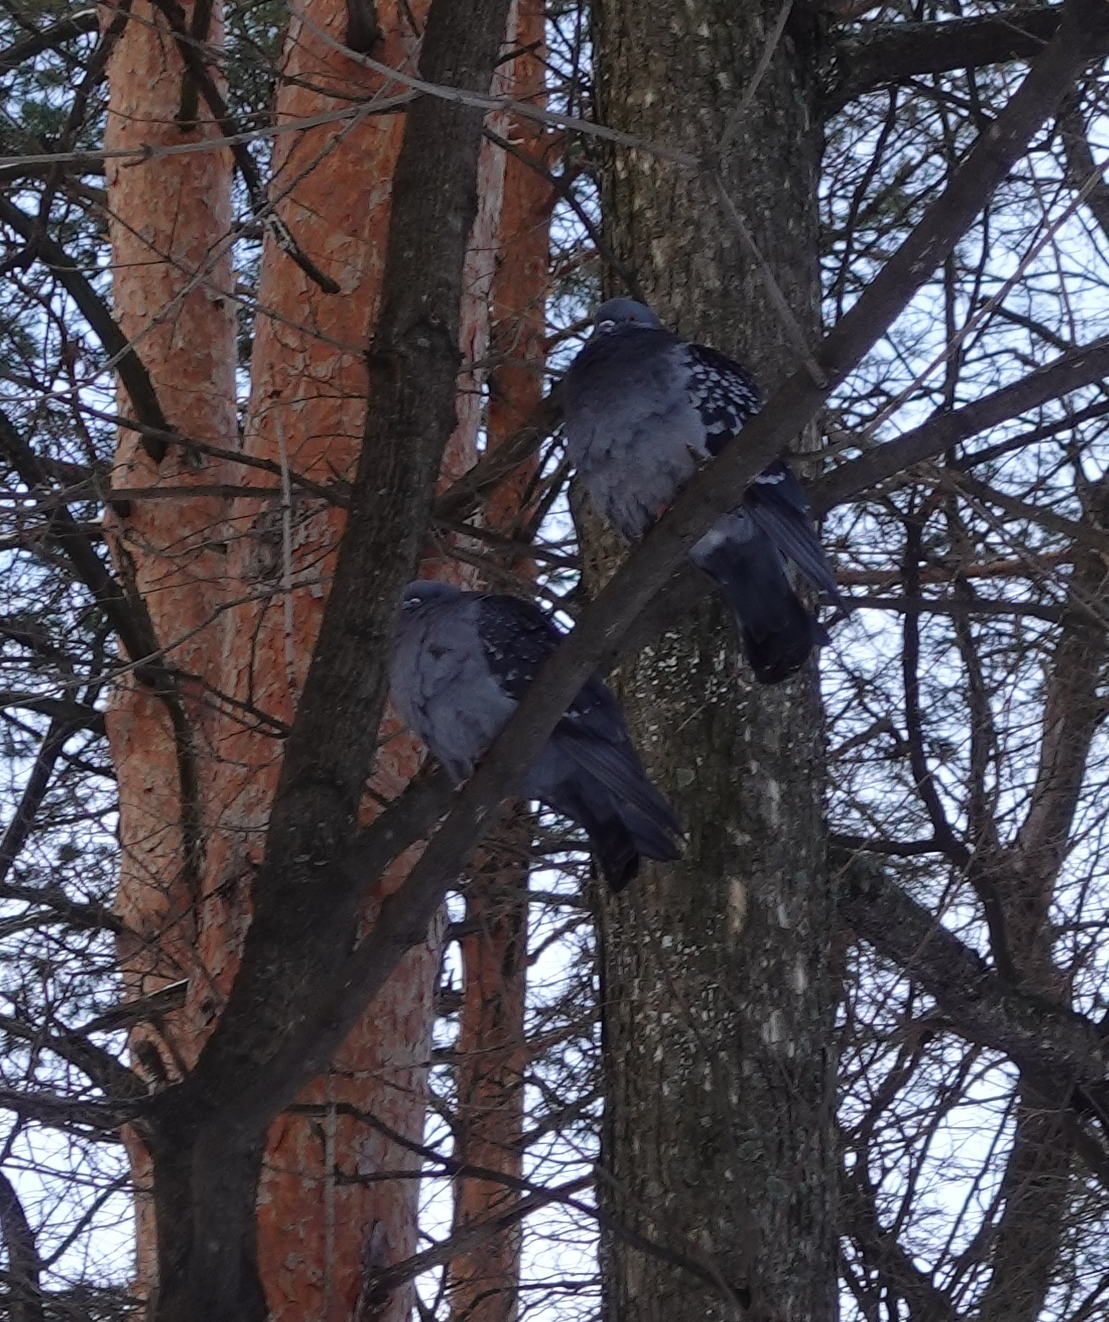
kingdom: Animalia
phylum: Chordata
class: Aves
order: Columbiformes
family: Columbidae
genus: Columba
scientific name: Columba livia
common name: Rock pigeon
